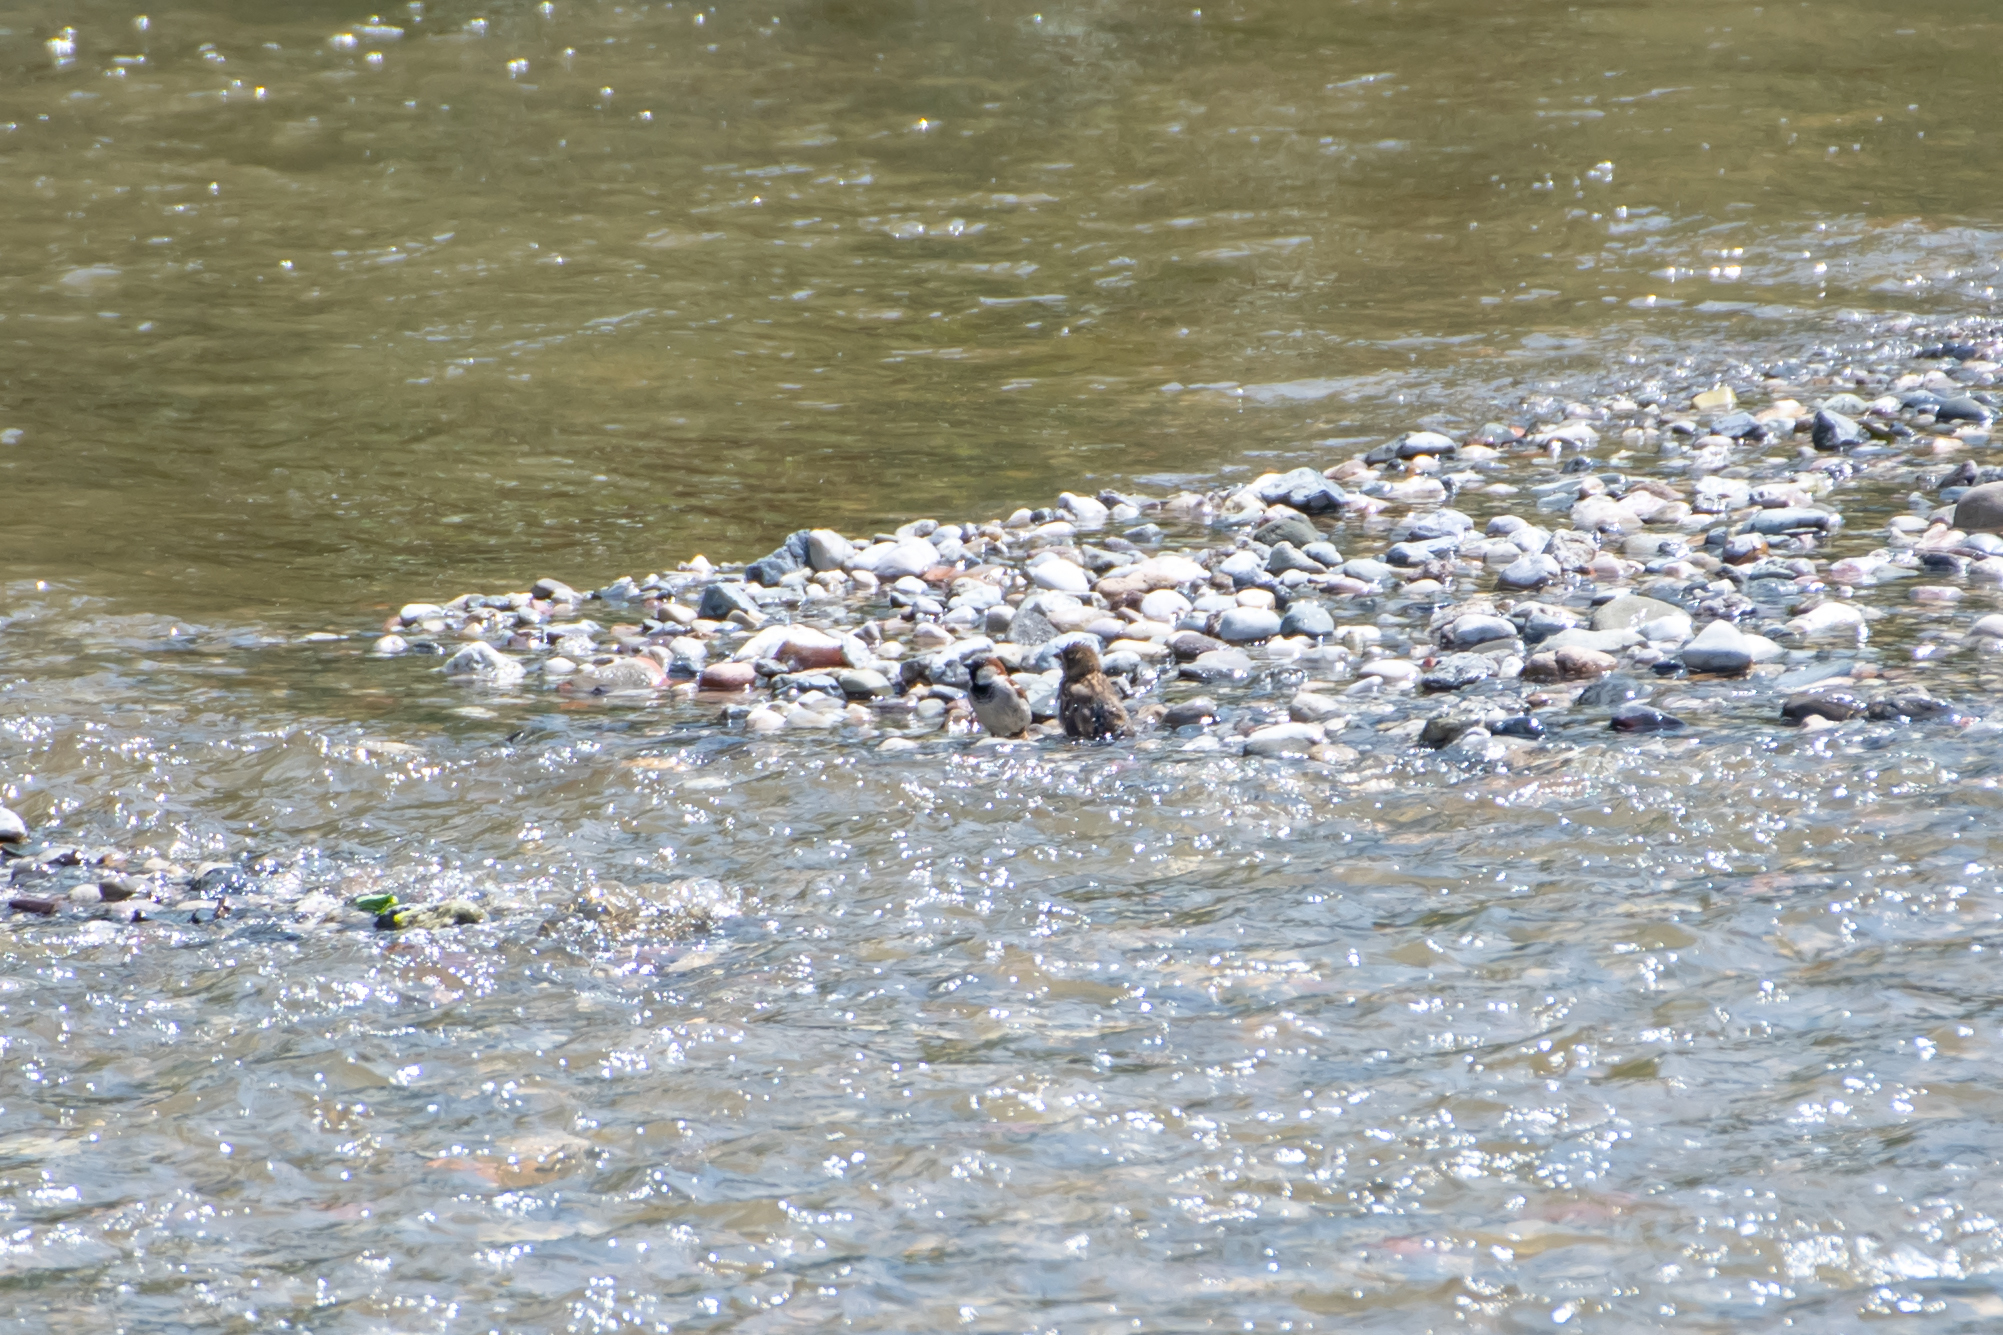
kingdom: Animalia
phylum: Chordata
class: Aves
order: Passeriformes
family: Passeridae
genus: Passer
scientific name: Passer domesticus
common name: House sparrow
